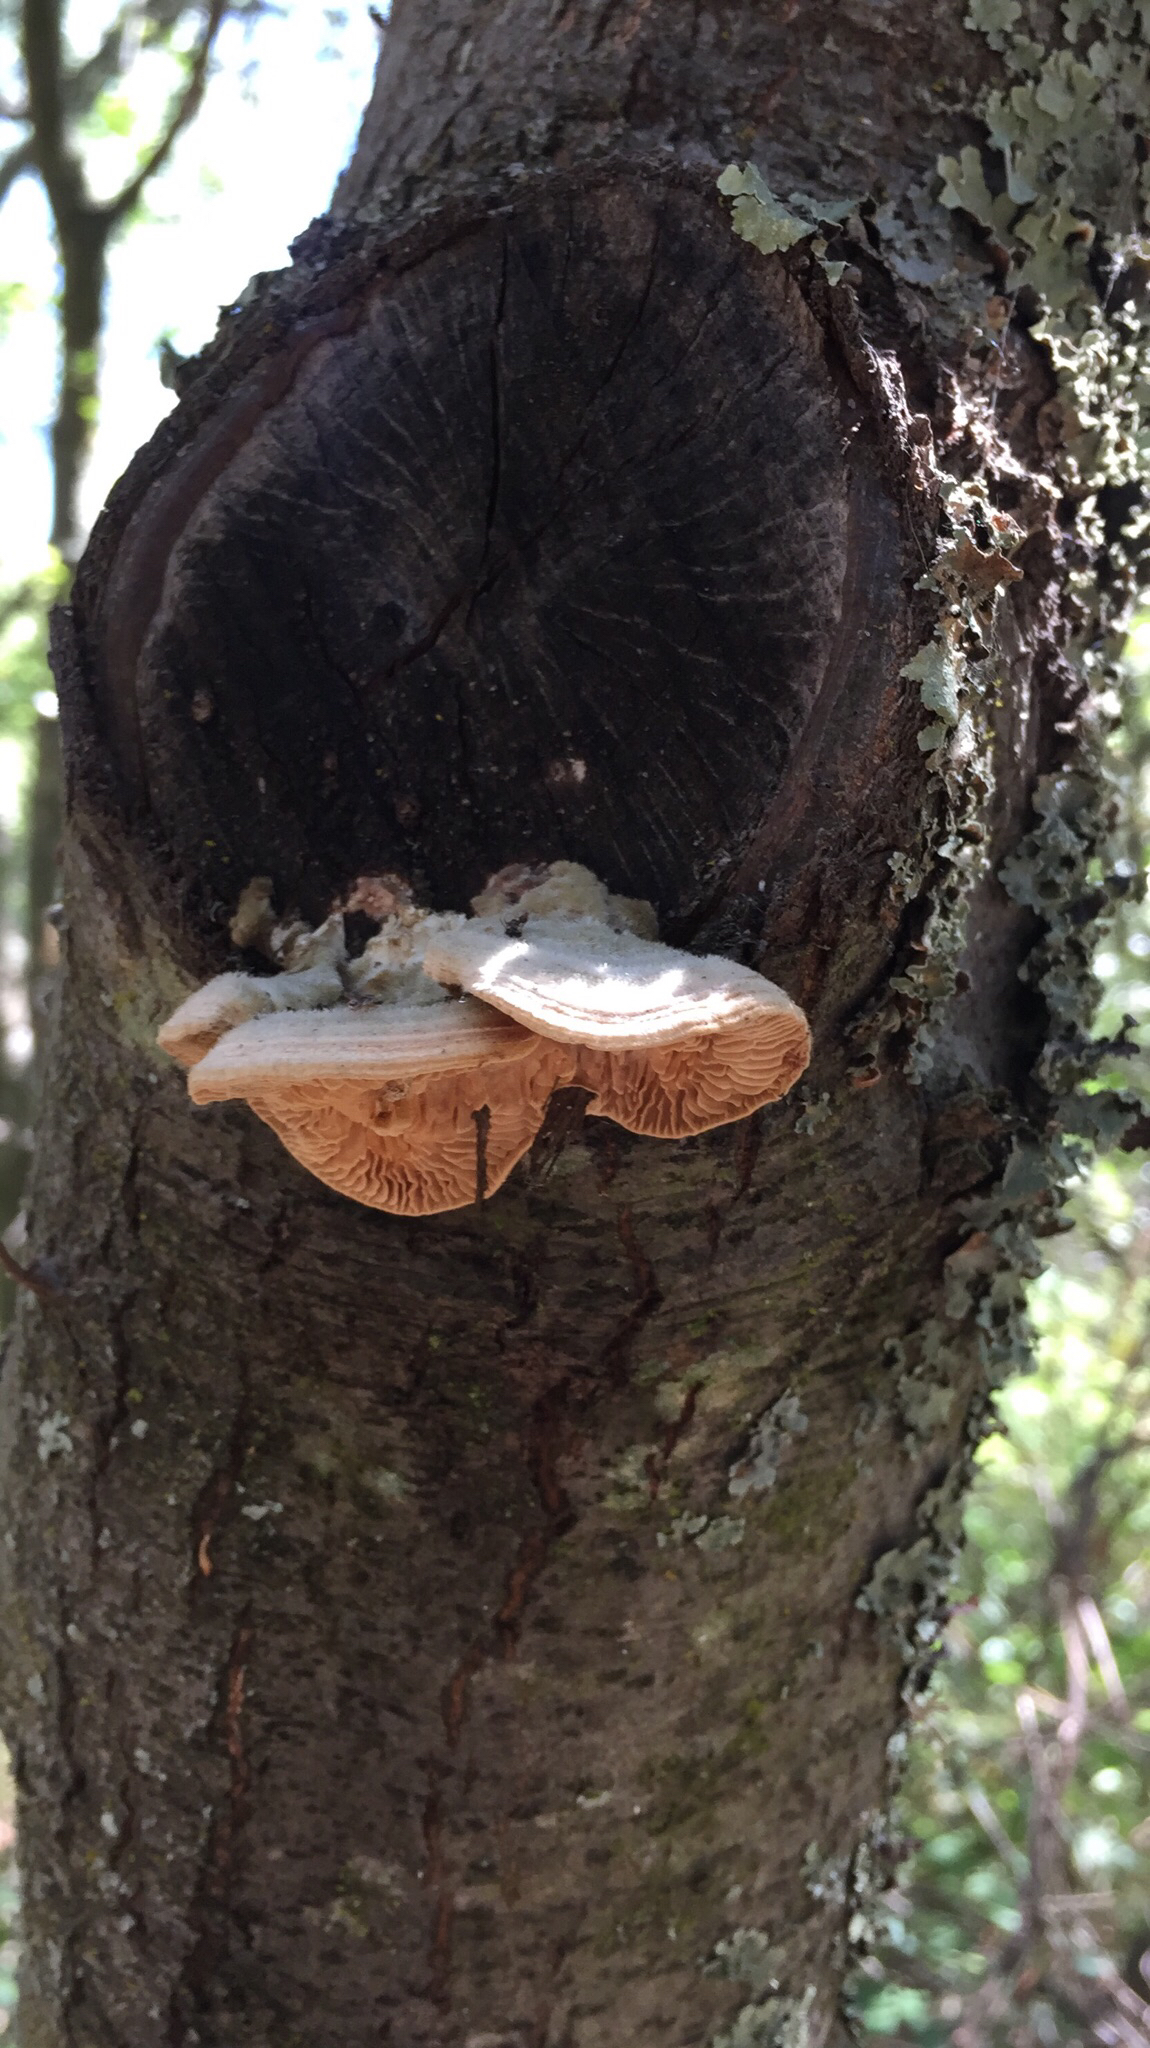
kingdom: Fungi
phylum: Basidiomycota
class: Agaricomycetes
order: Polyporales
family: Polyporaceae
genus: Lenzites
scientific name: Lenzites betulinus
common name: Birch mazegill
